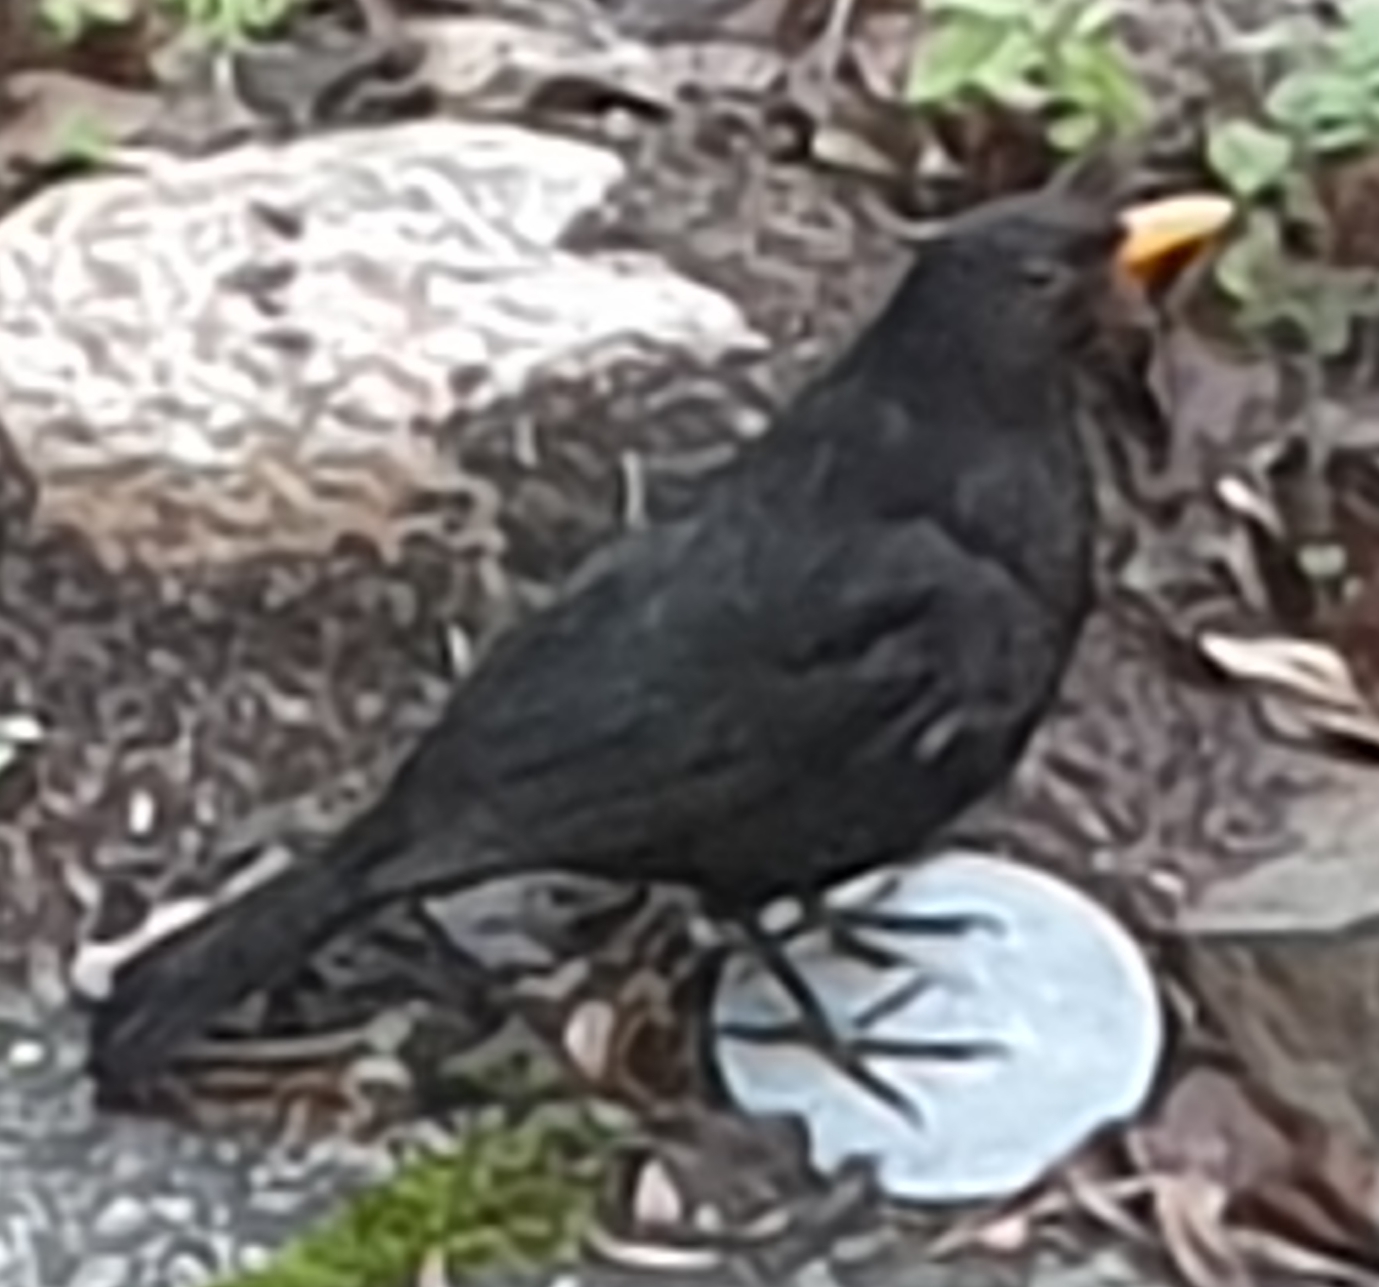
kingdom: Animalia
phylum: Chordata
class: Aves
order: Passeriformes
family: Turdidae
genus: Turdus
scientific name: Turdus merula
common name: Common blackbird
